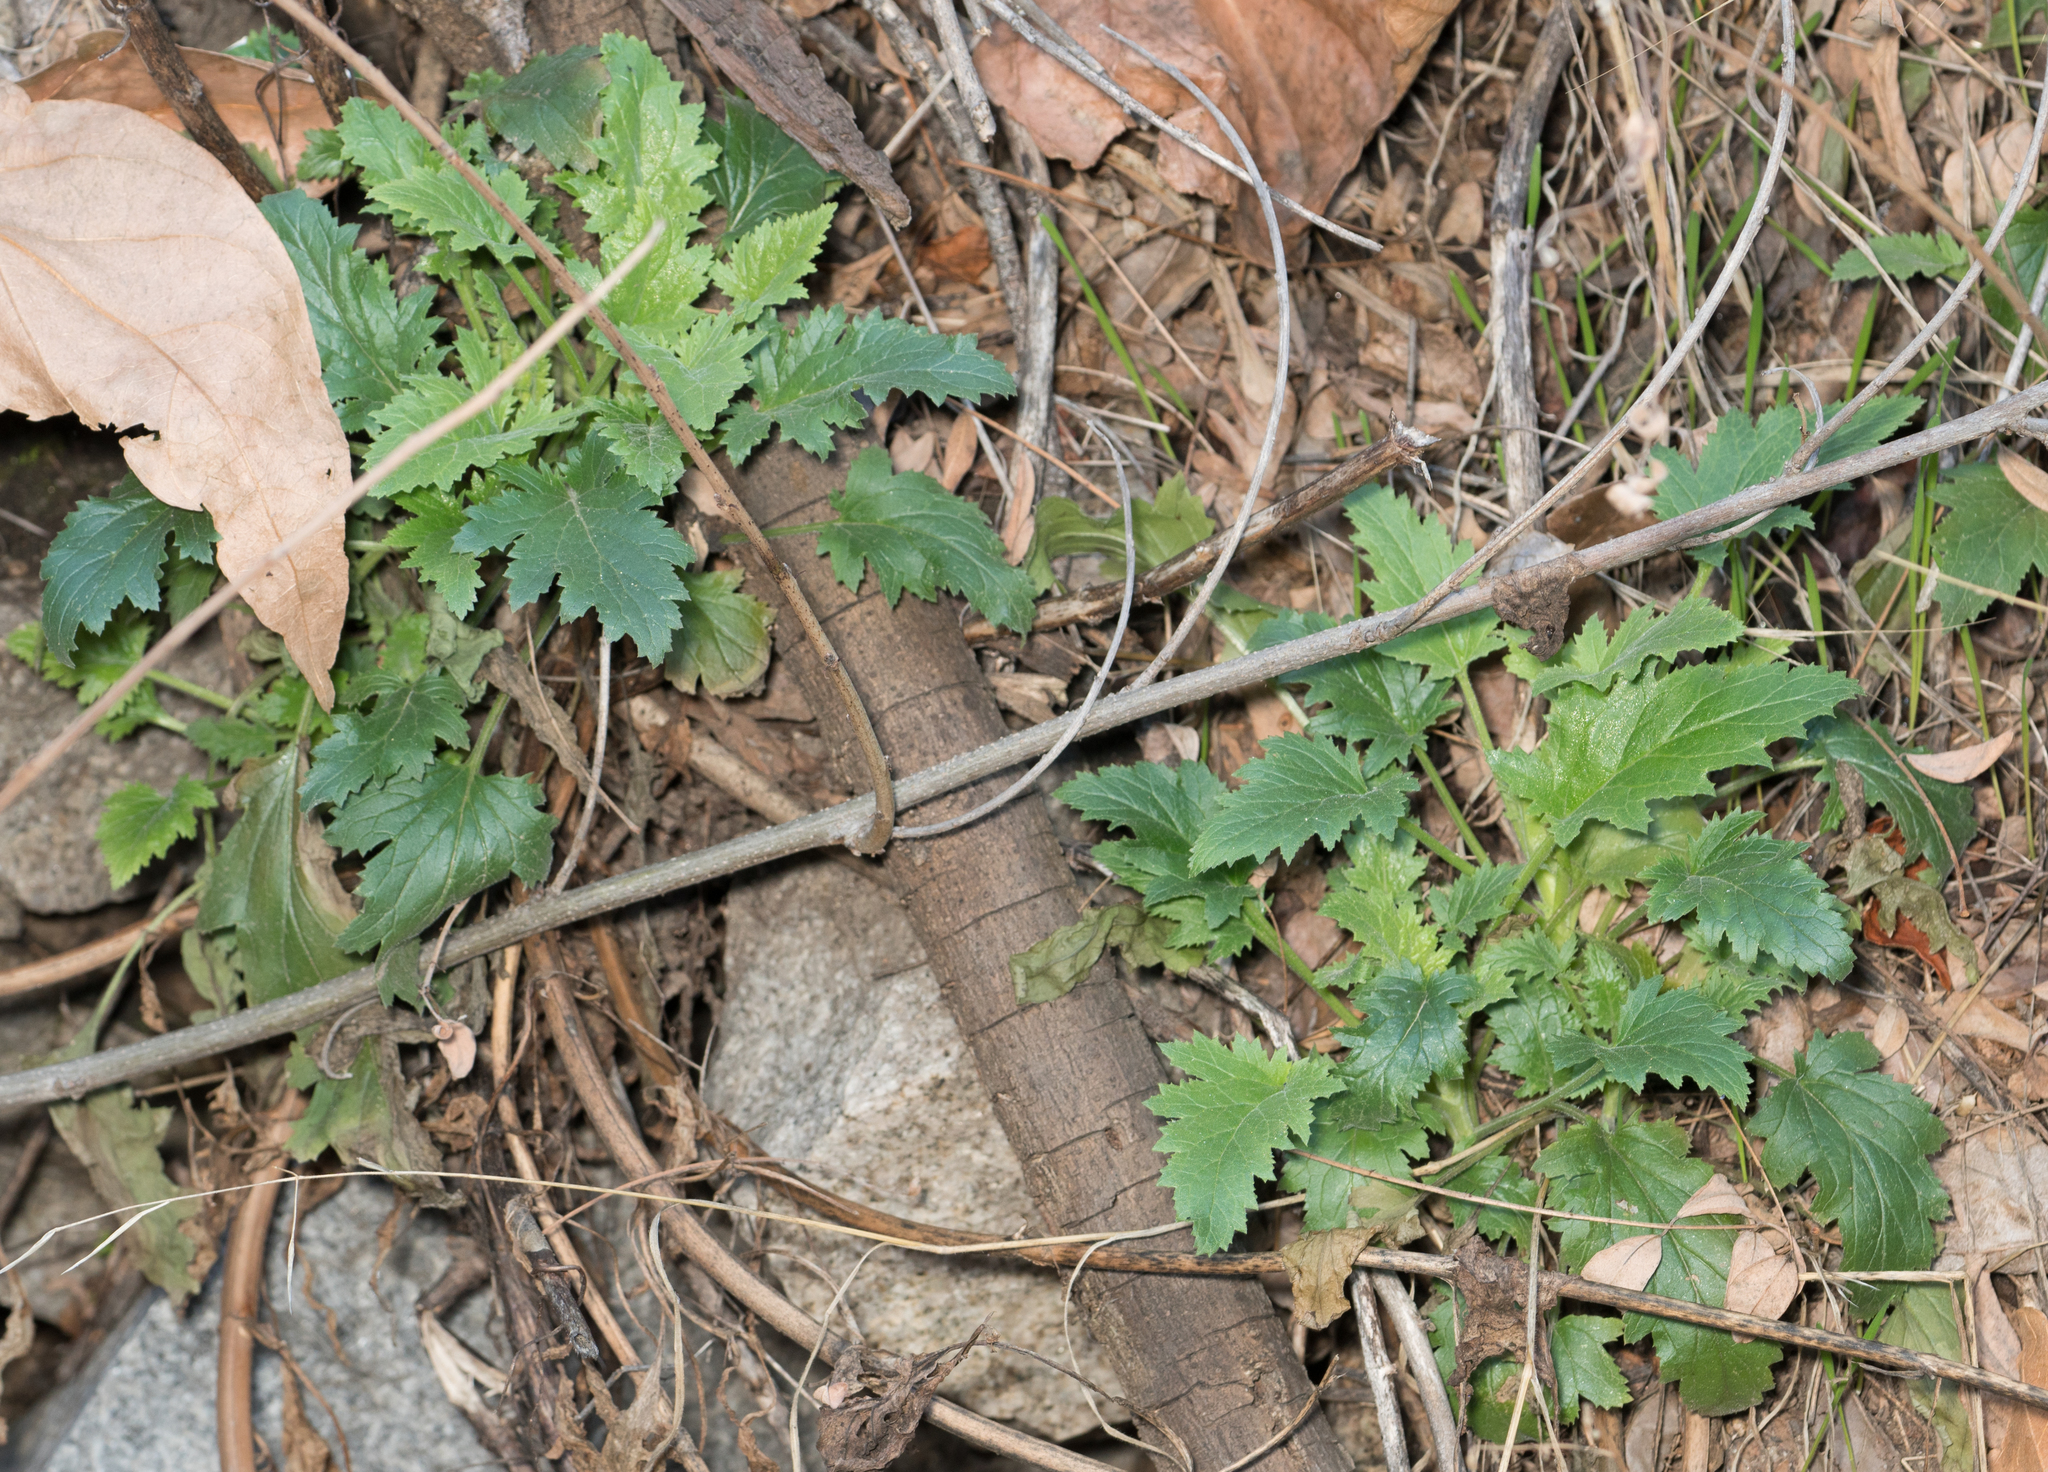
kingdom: Plantae
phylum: Tracheophyta
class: Magnoliopsida
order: Lamiales
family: Scrophulariaceae
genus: Scrophularia
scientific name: Scrophularia californica
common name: California figwort
